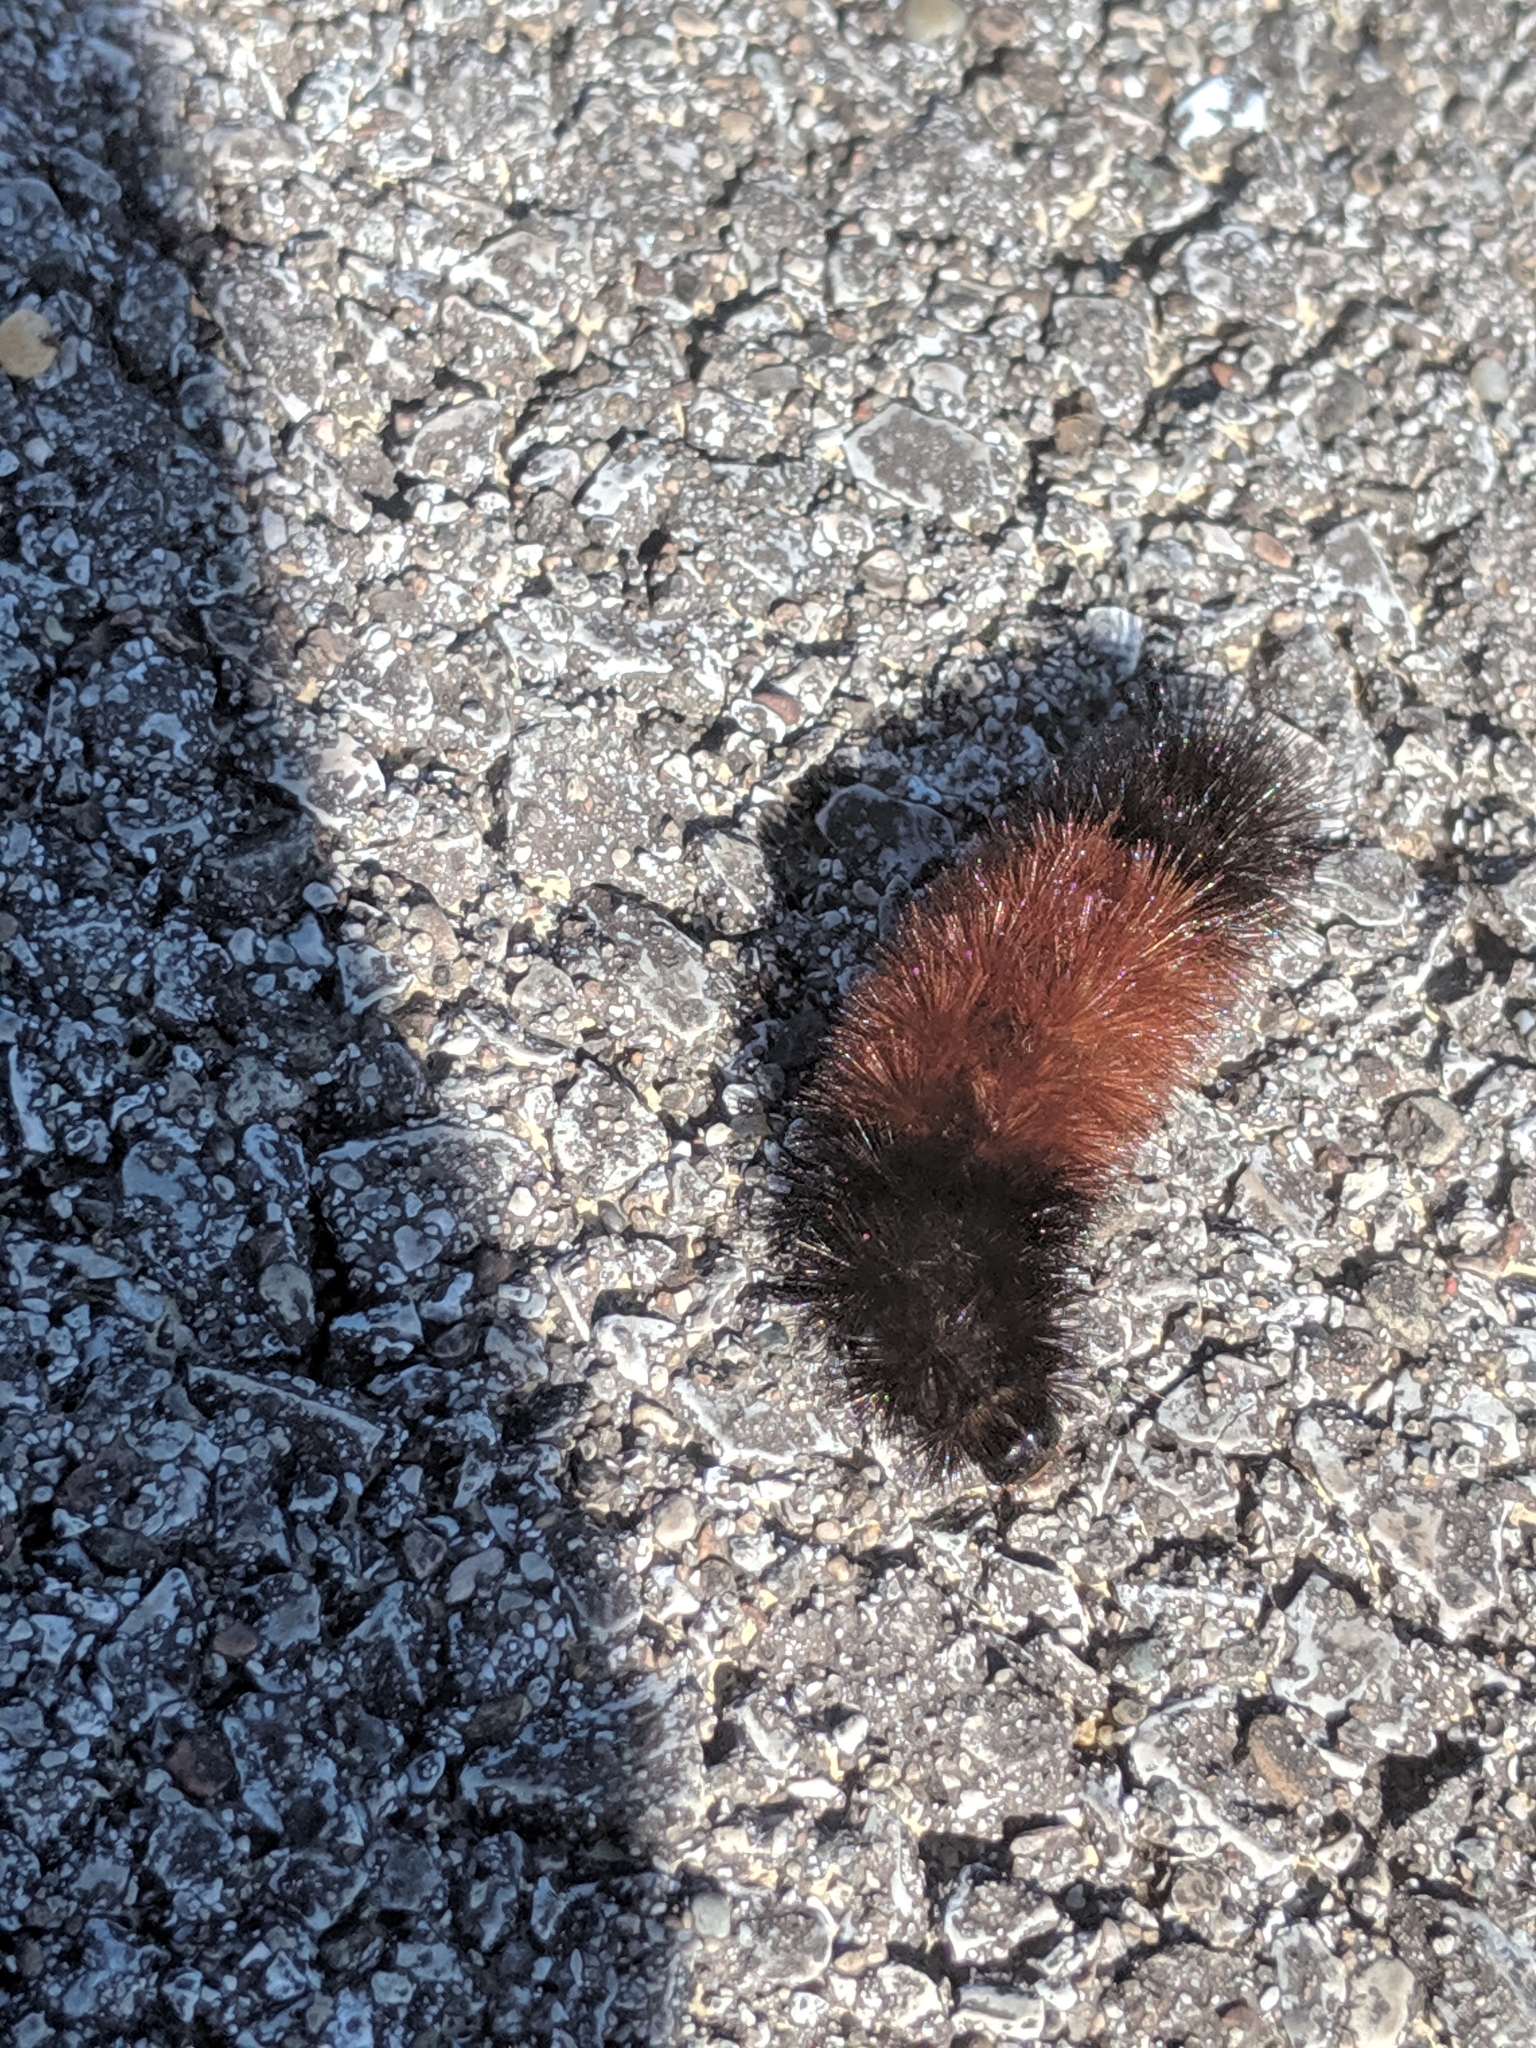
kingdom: Animalia
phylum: Arthropoda
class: Insecta
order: Lepidoptera
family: Erebidae
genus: Pyrrharctia
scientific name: Pyrrharctia isabella
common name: Isabella tiger moth
